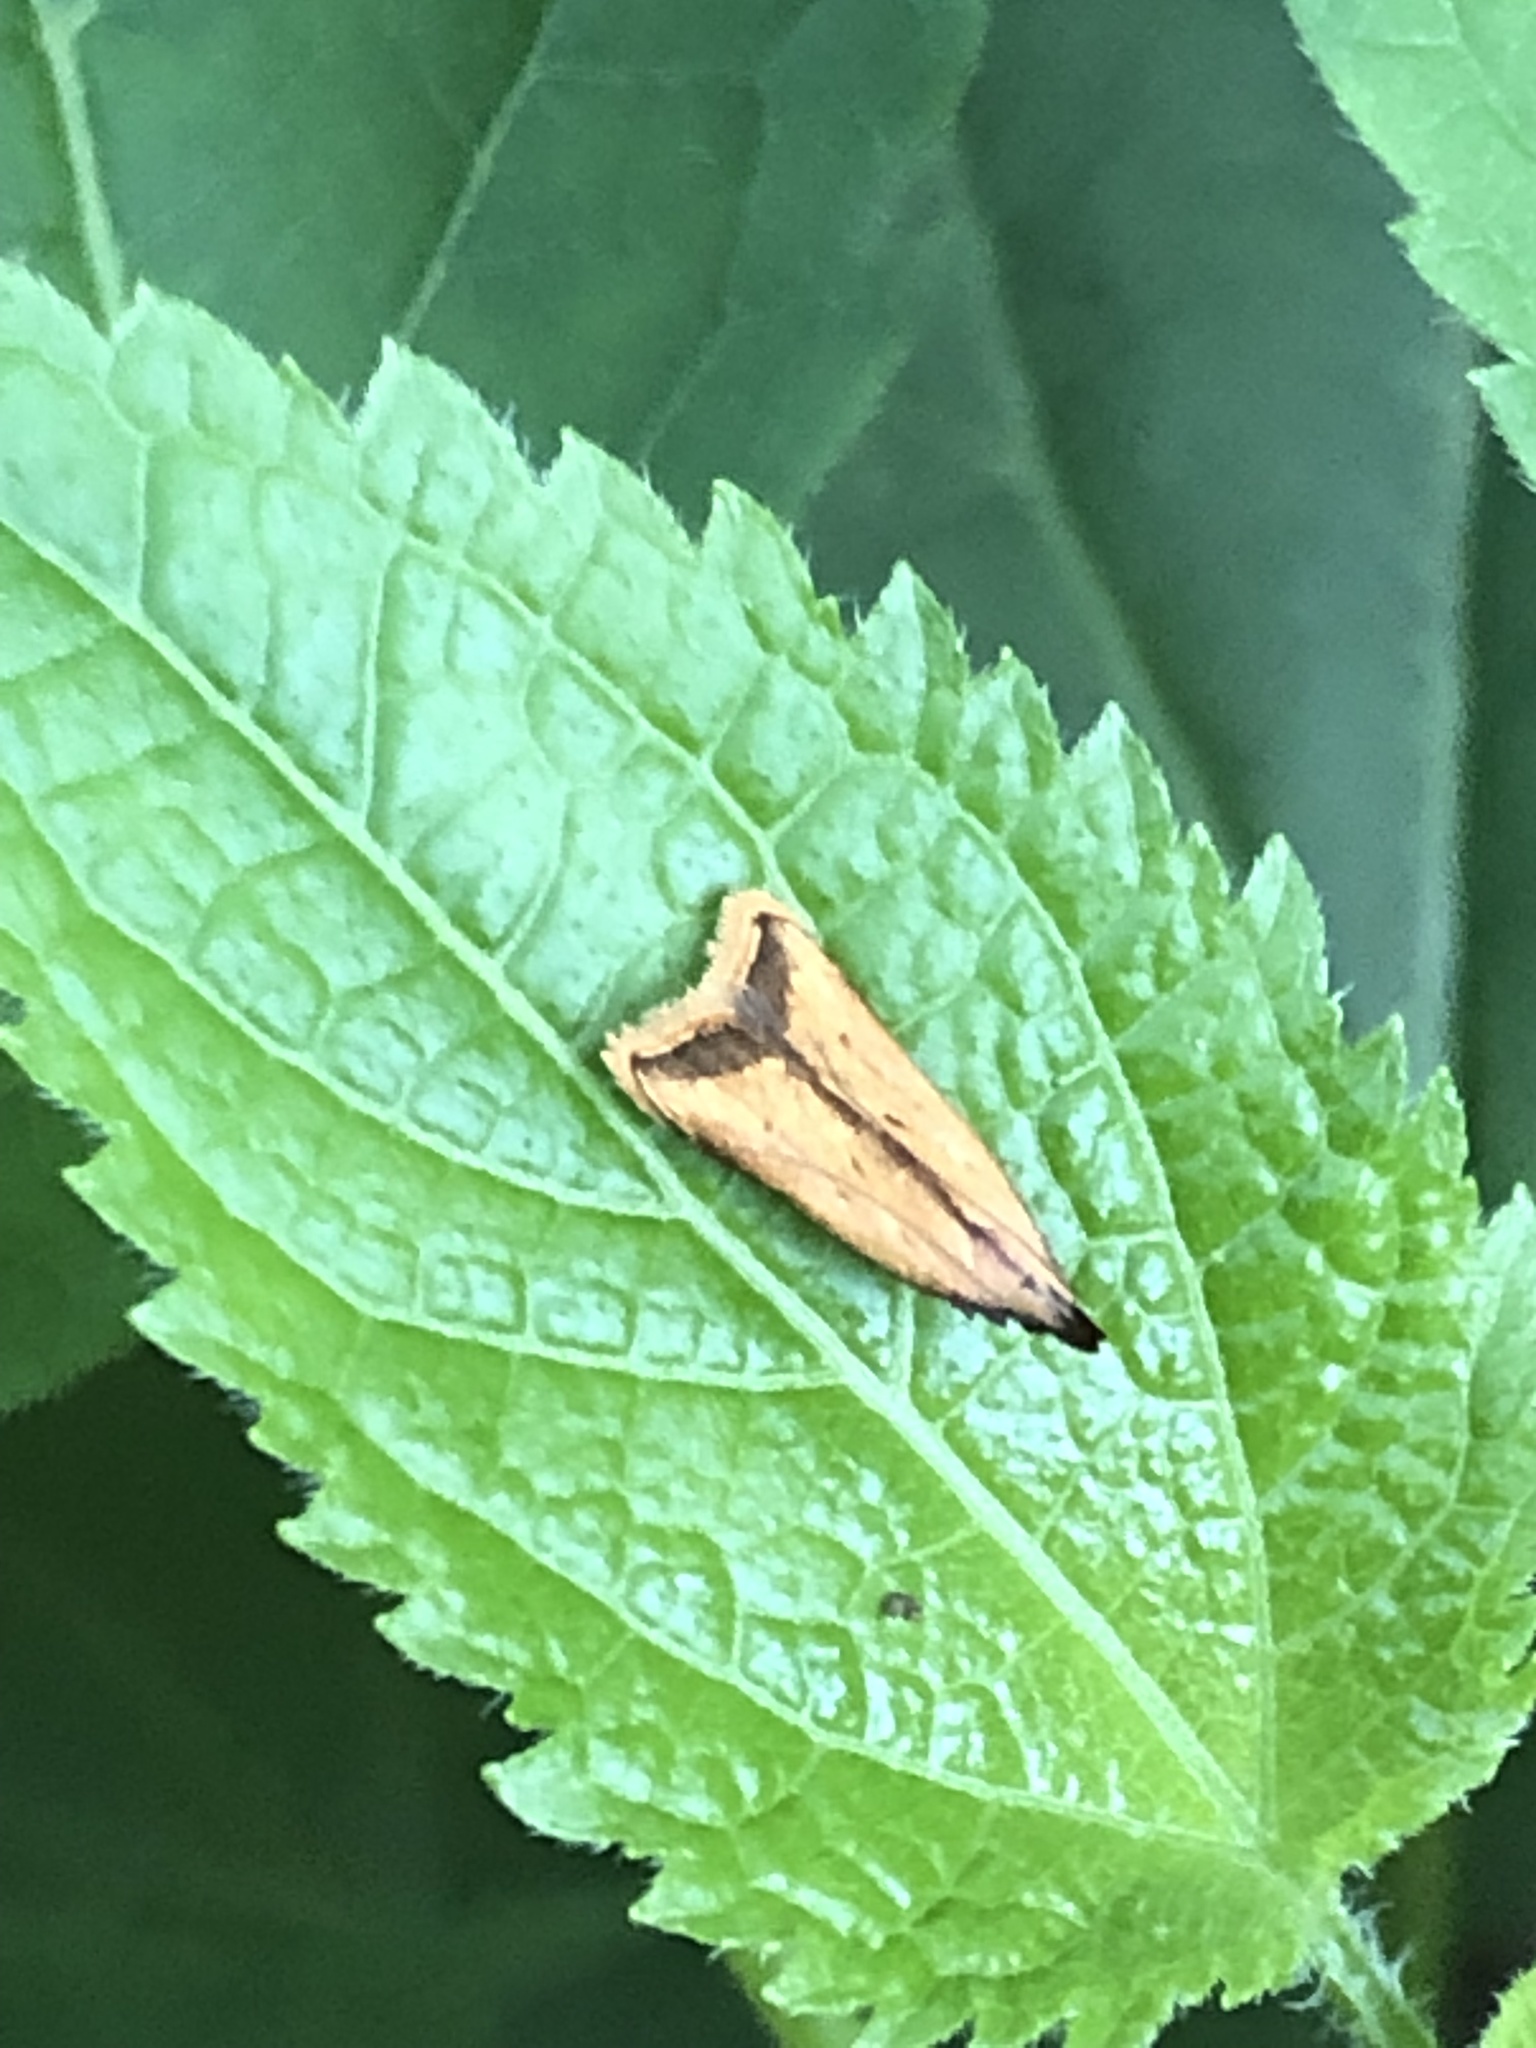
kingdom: Animalia
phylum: Arthropoda
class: Insecta
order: Lepidoptera
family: Gelechiidae
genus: Dichomeris
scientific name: Dichomeris heriguronis
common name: Black-edged dichomeris moth
